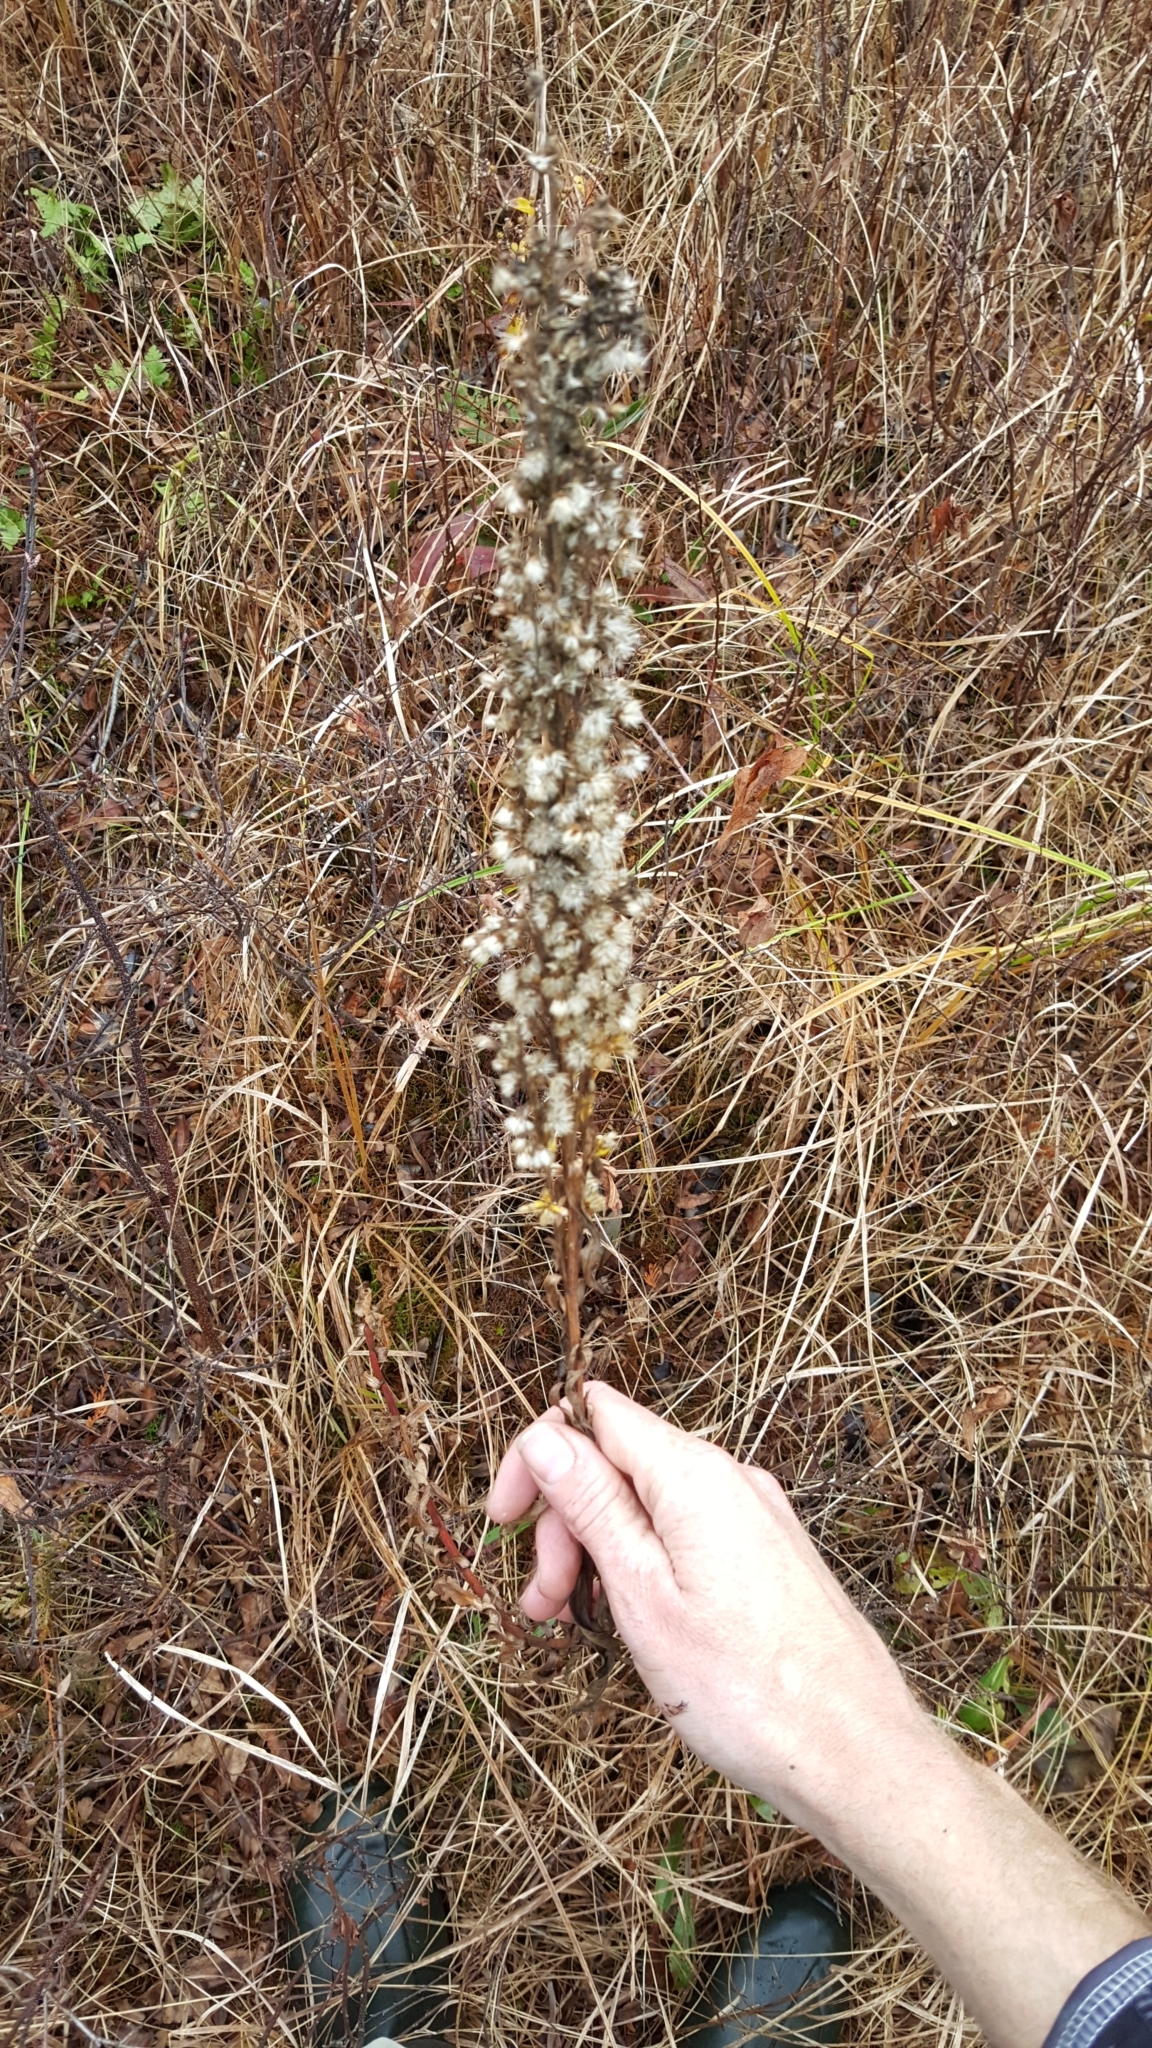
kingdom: Plantae
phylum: Tracheophyta
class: Magnoliopsida
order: Asterales
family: Asteraceae
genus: Solidago
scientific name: Solidago uliginosa
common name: Bog goldenrod
